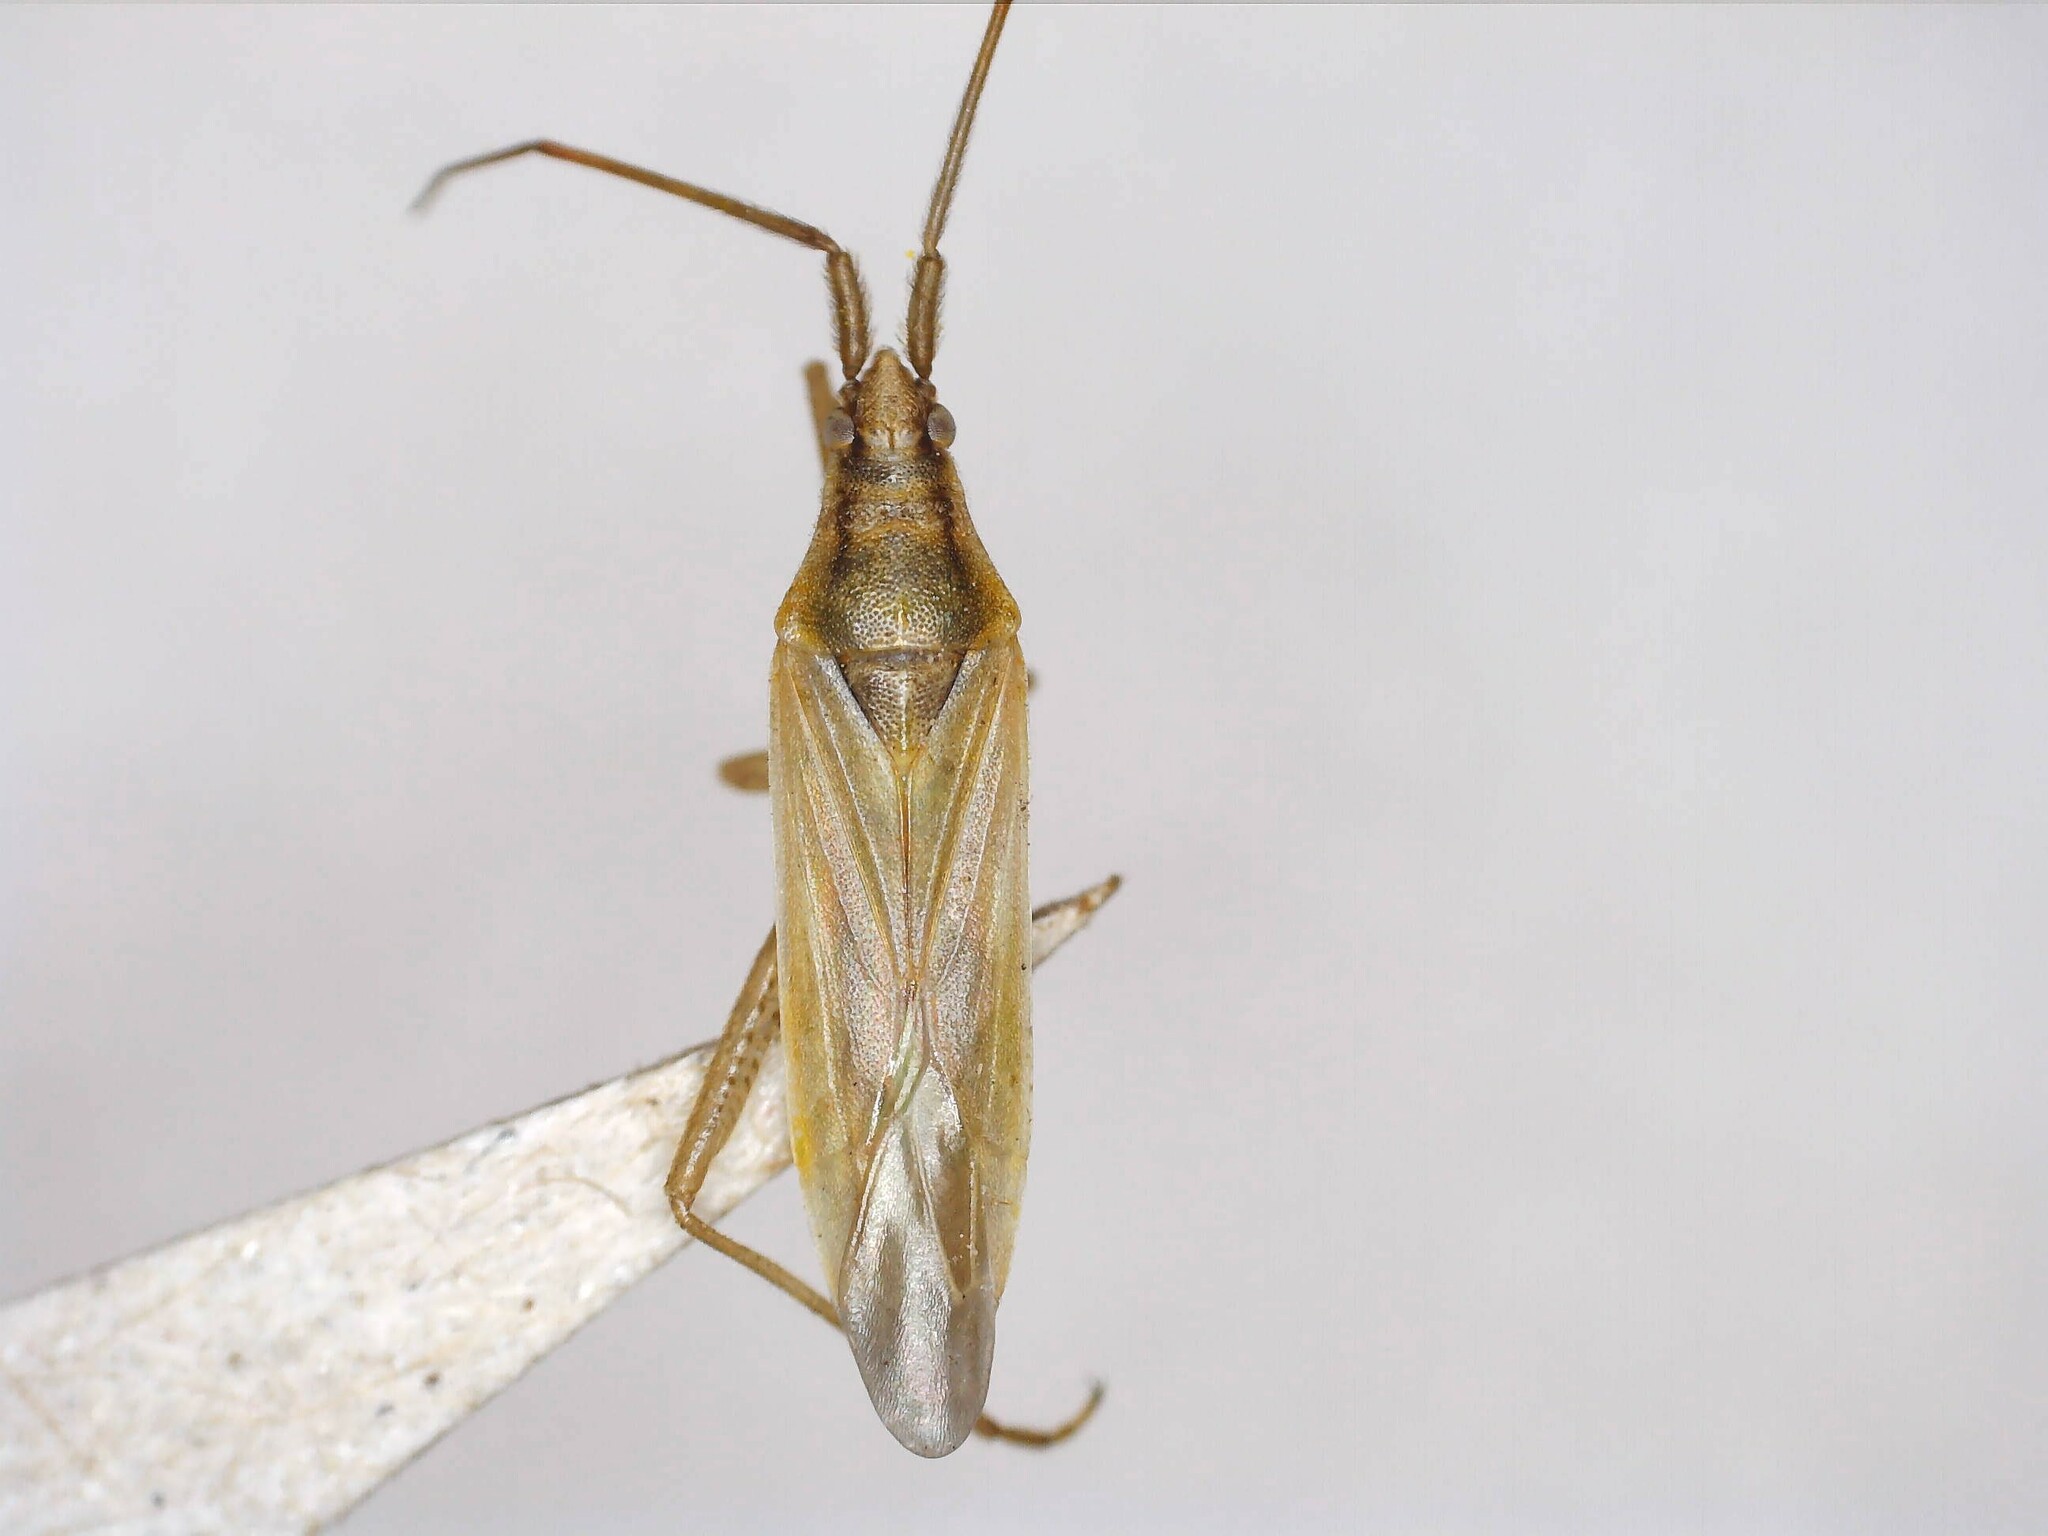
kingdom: Animalia
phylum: Arthropoda
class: Insecta
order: Hemiptera
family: Miridae
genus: Stenodema
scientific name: Stenodema virens
